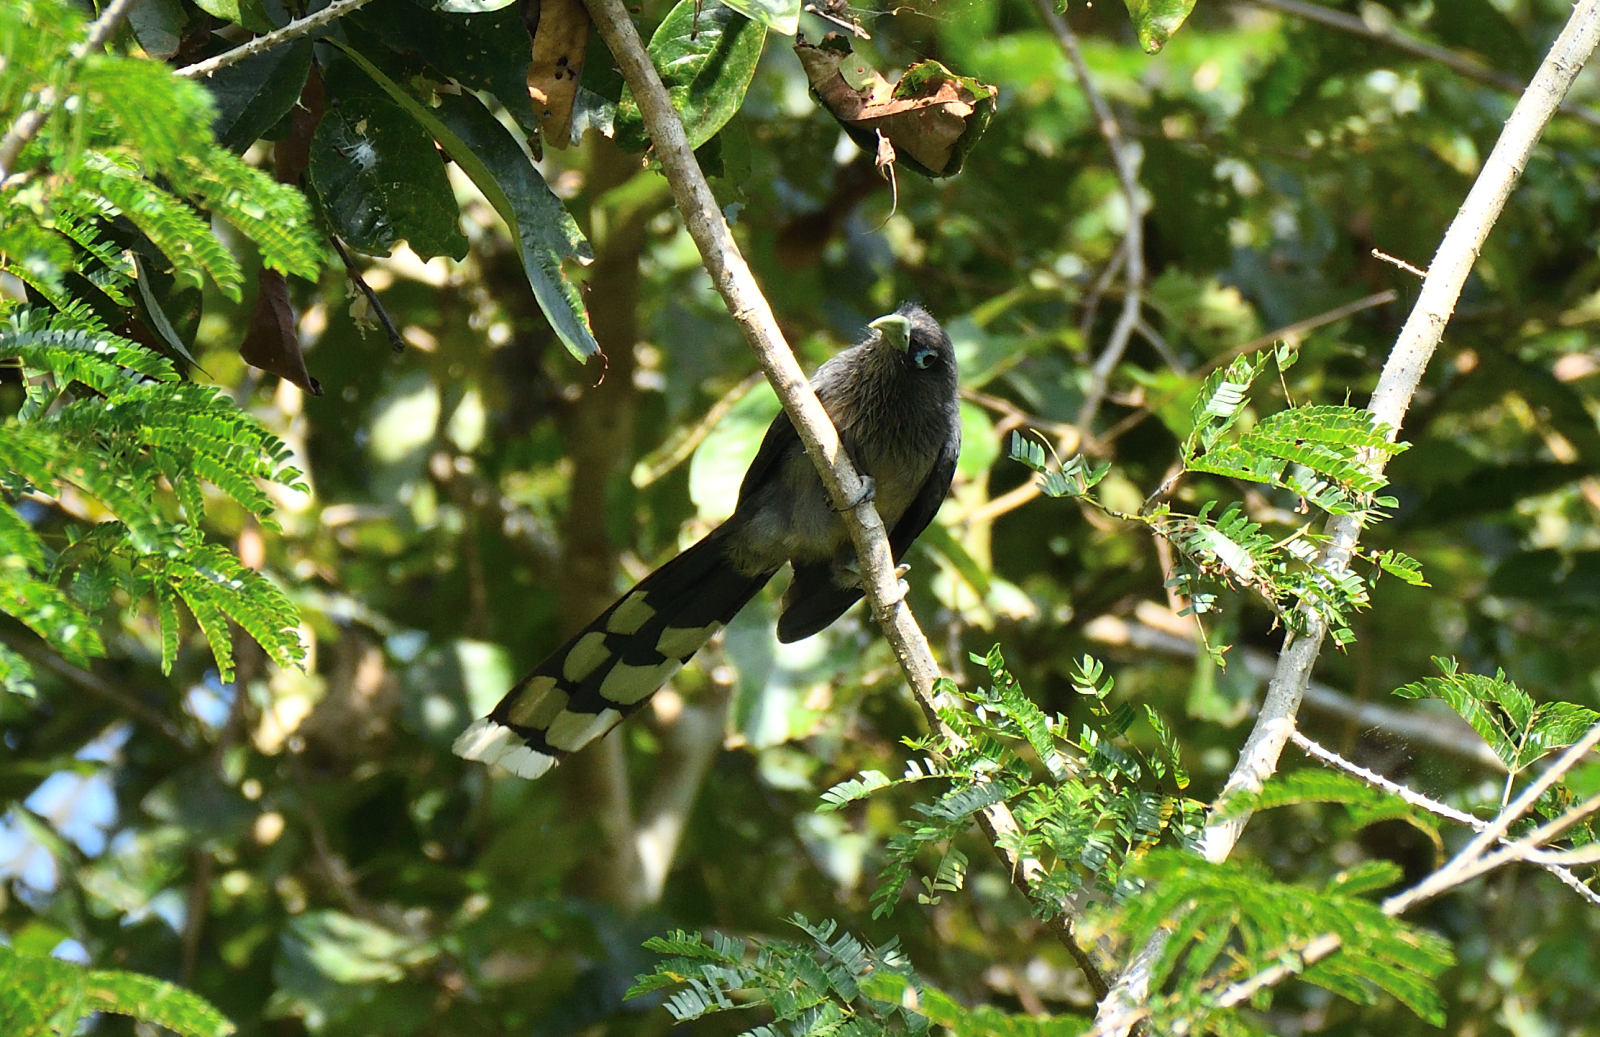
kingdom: Animalia
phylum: Chordata
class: Aves
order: Cuculiformes
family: Cuculidae
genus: Rhopodytes
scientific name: Rhopodytes viridirostris
